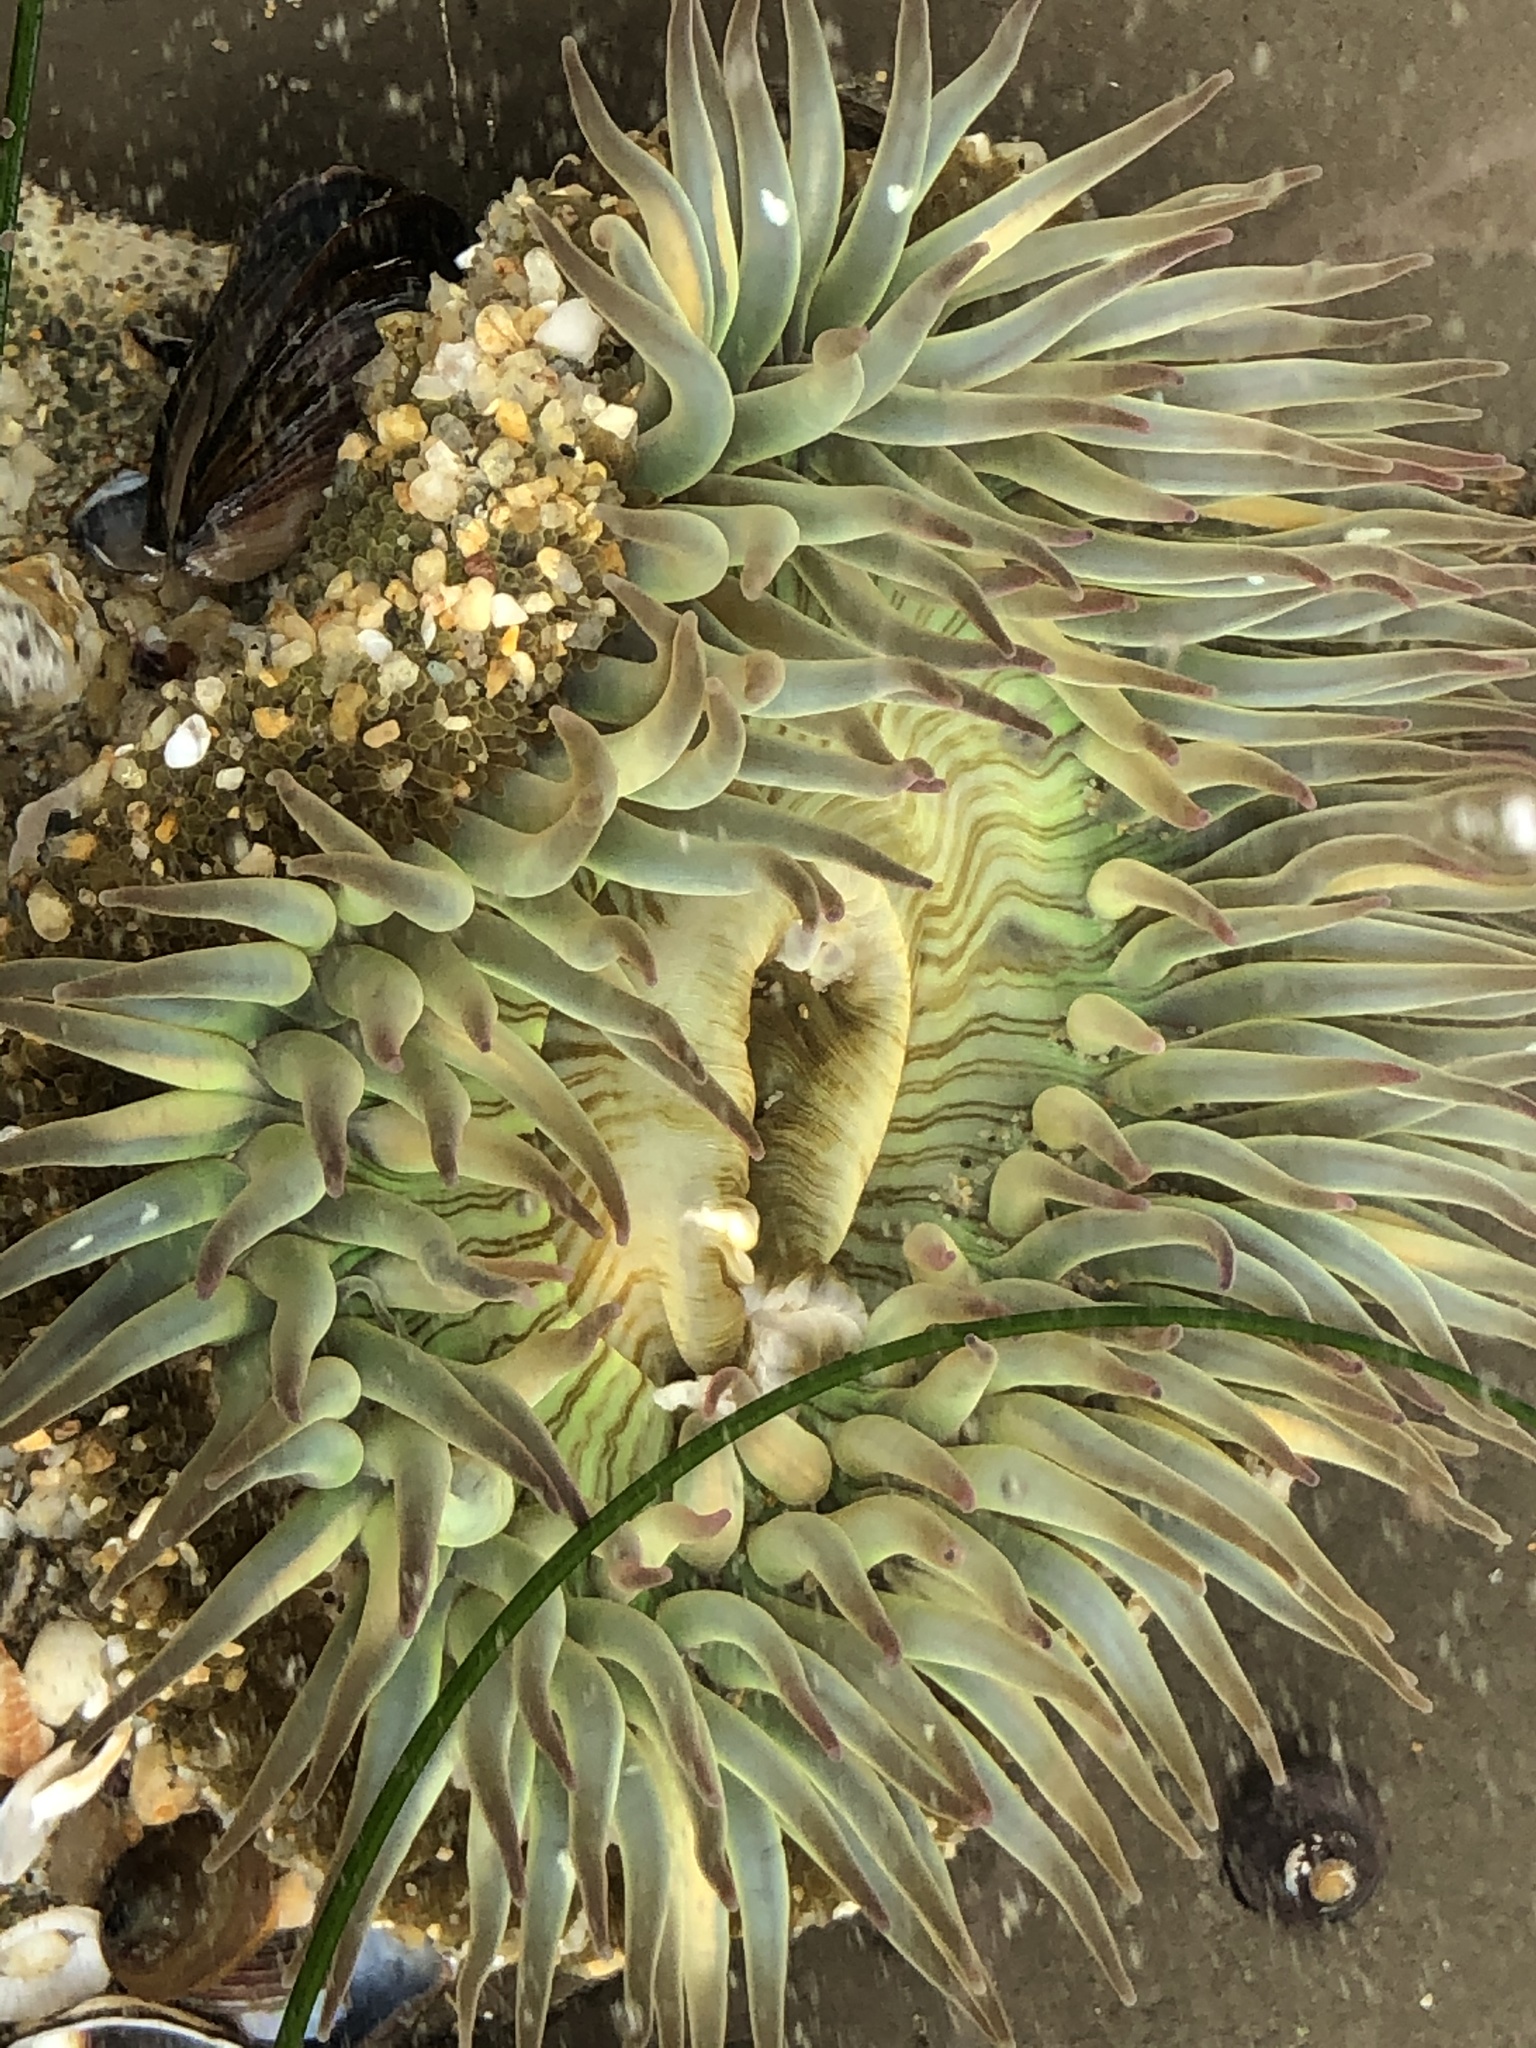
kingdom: Animalia
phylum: Cnidaria
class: Anthozoa
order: Actiniaria
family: Actiniidae
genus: Anthopleura
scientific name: Anthopleura sola
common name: Sun anemone
